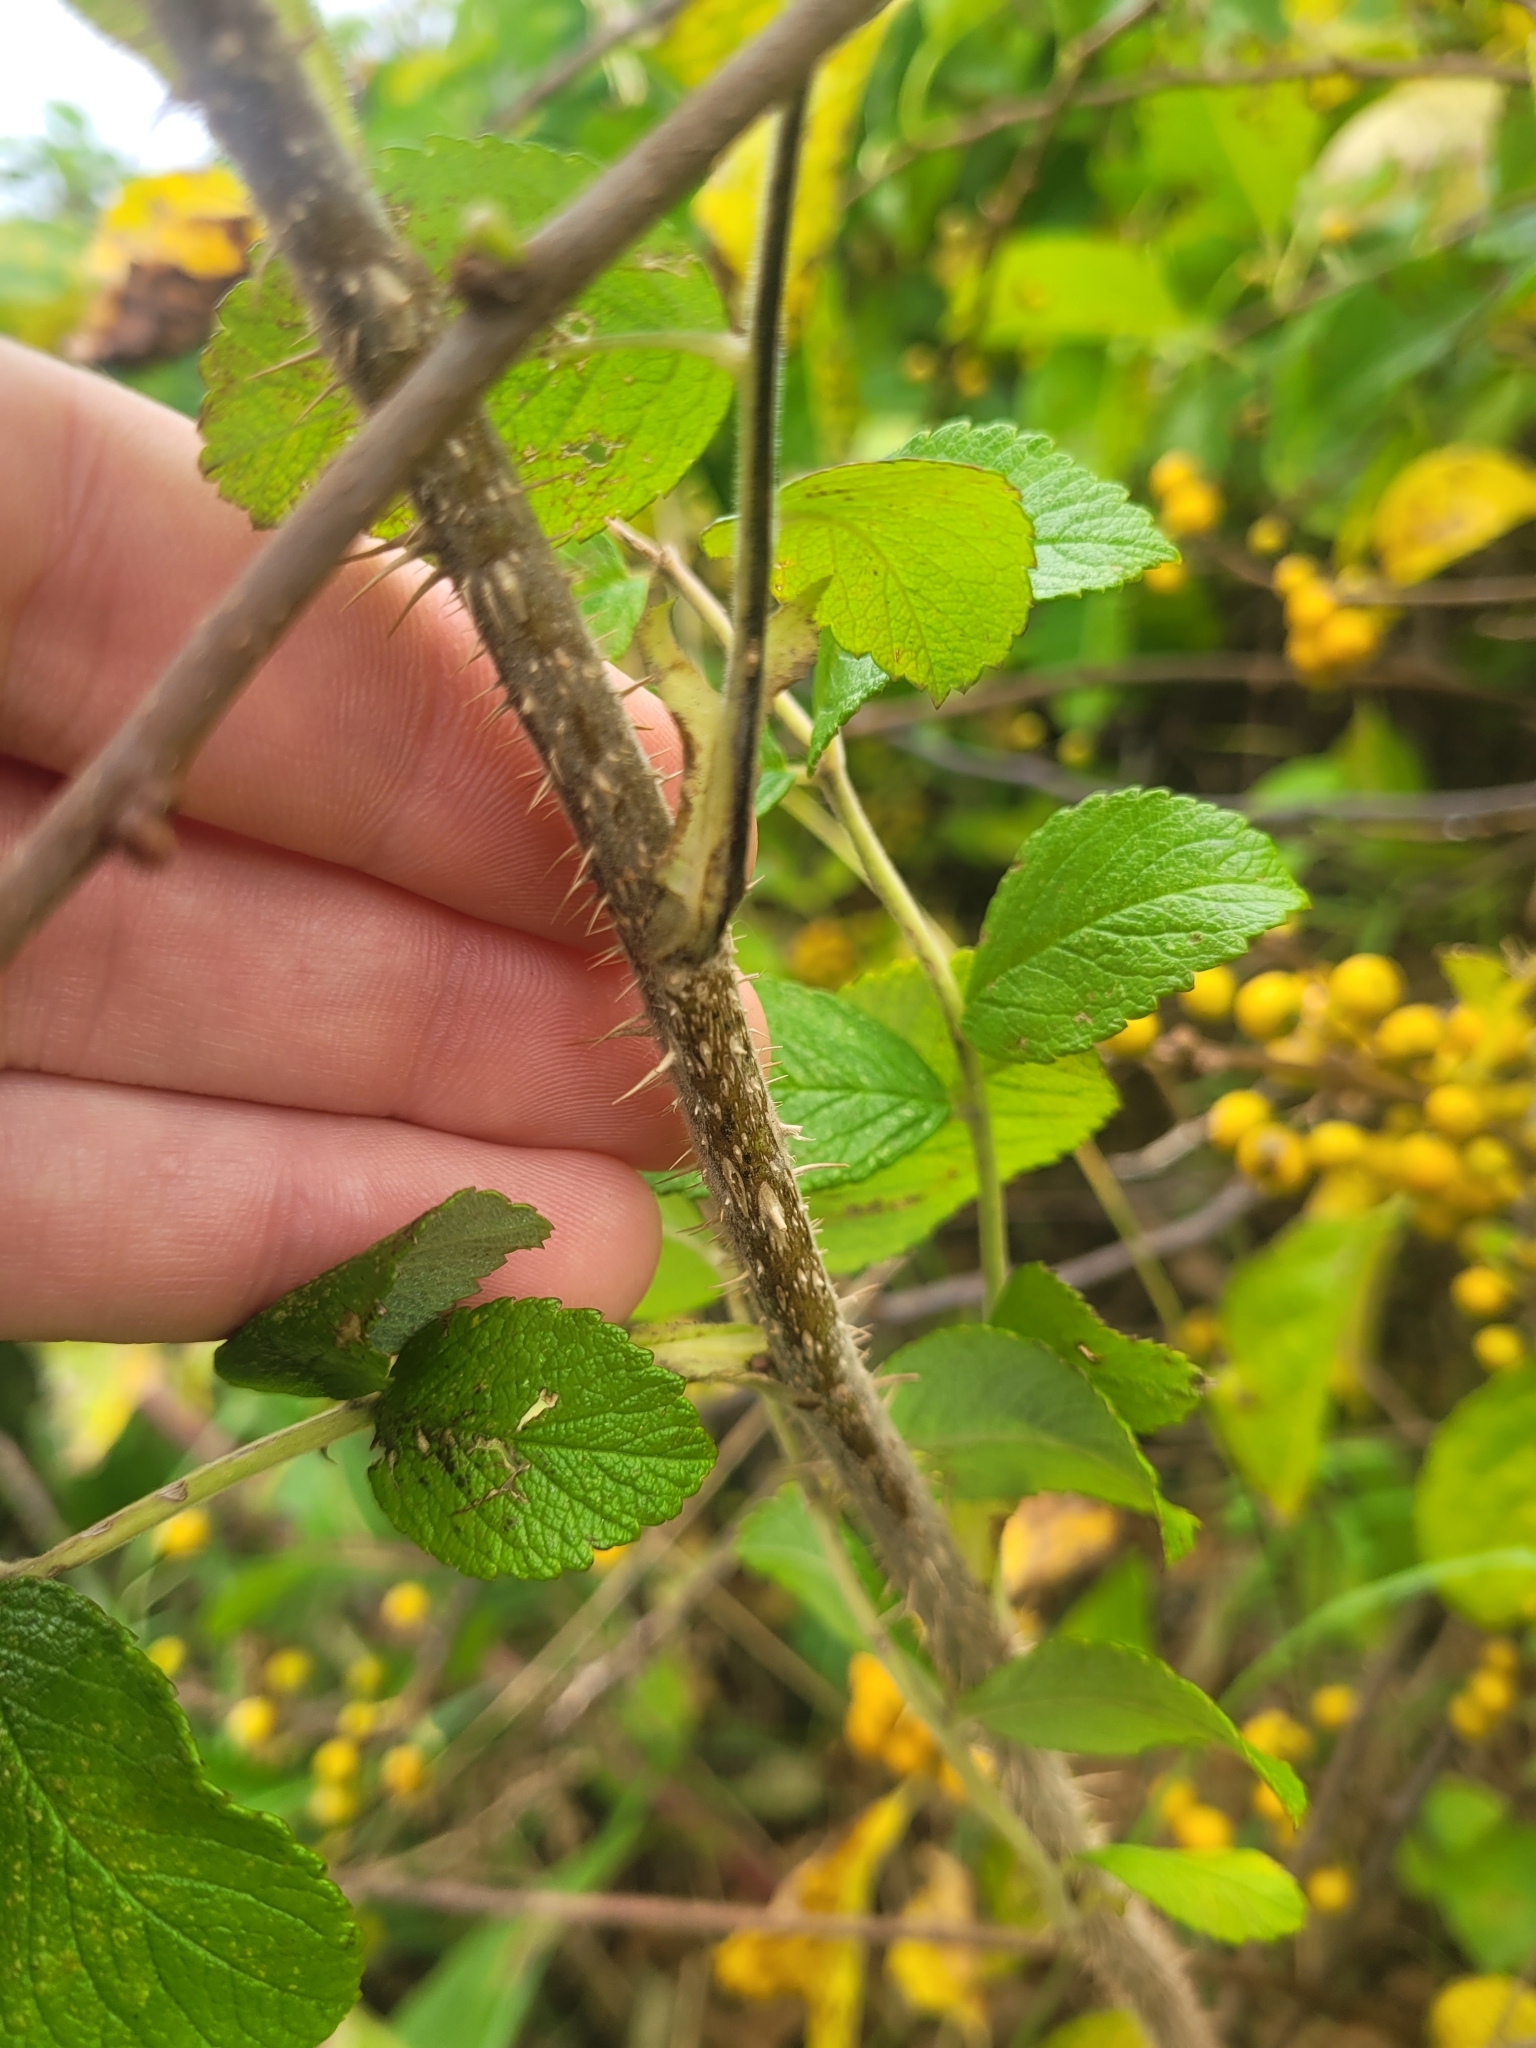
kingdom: Plantae
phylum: Tracheophyta
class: Magnoliopsida
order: Rosales
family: Rosaceae
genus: Rosa
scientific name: Rosa rugosa
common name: Japanese rose
